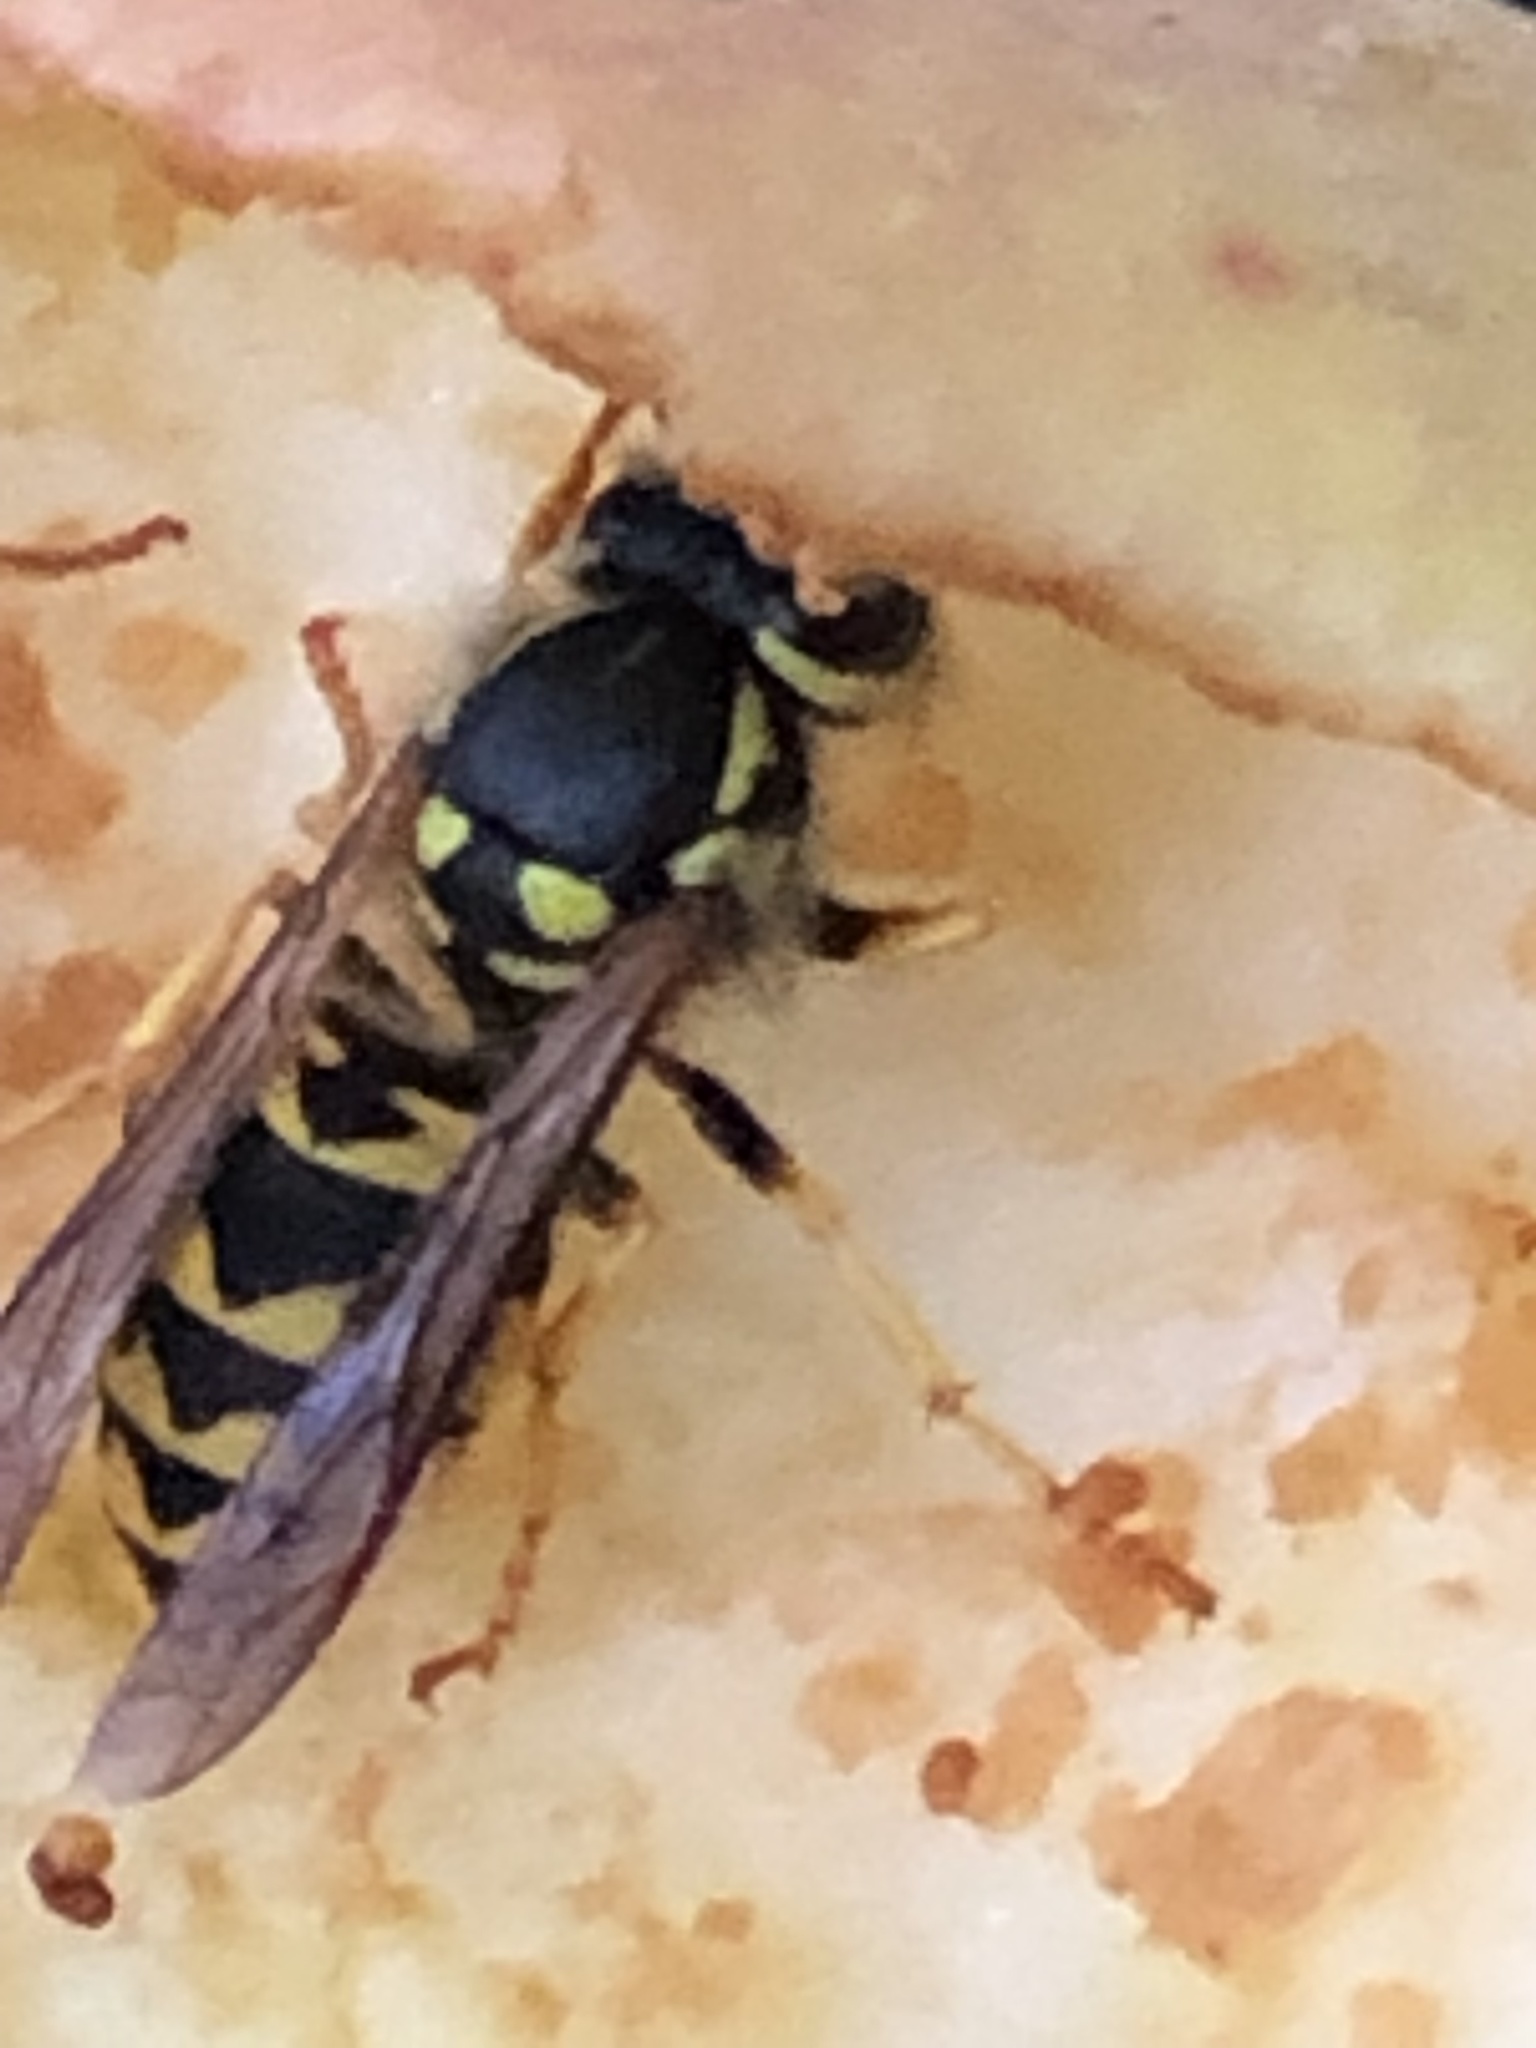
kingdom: Animalia
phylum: Arthropoda
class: Insecta
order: Hymenoptera
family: Vespidae
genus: Vespula
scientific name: Vespula germanica
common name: German wasp
